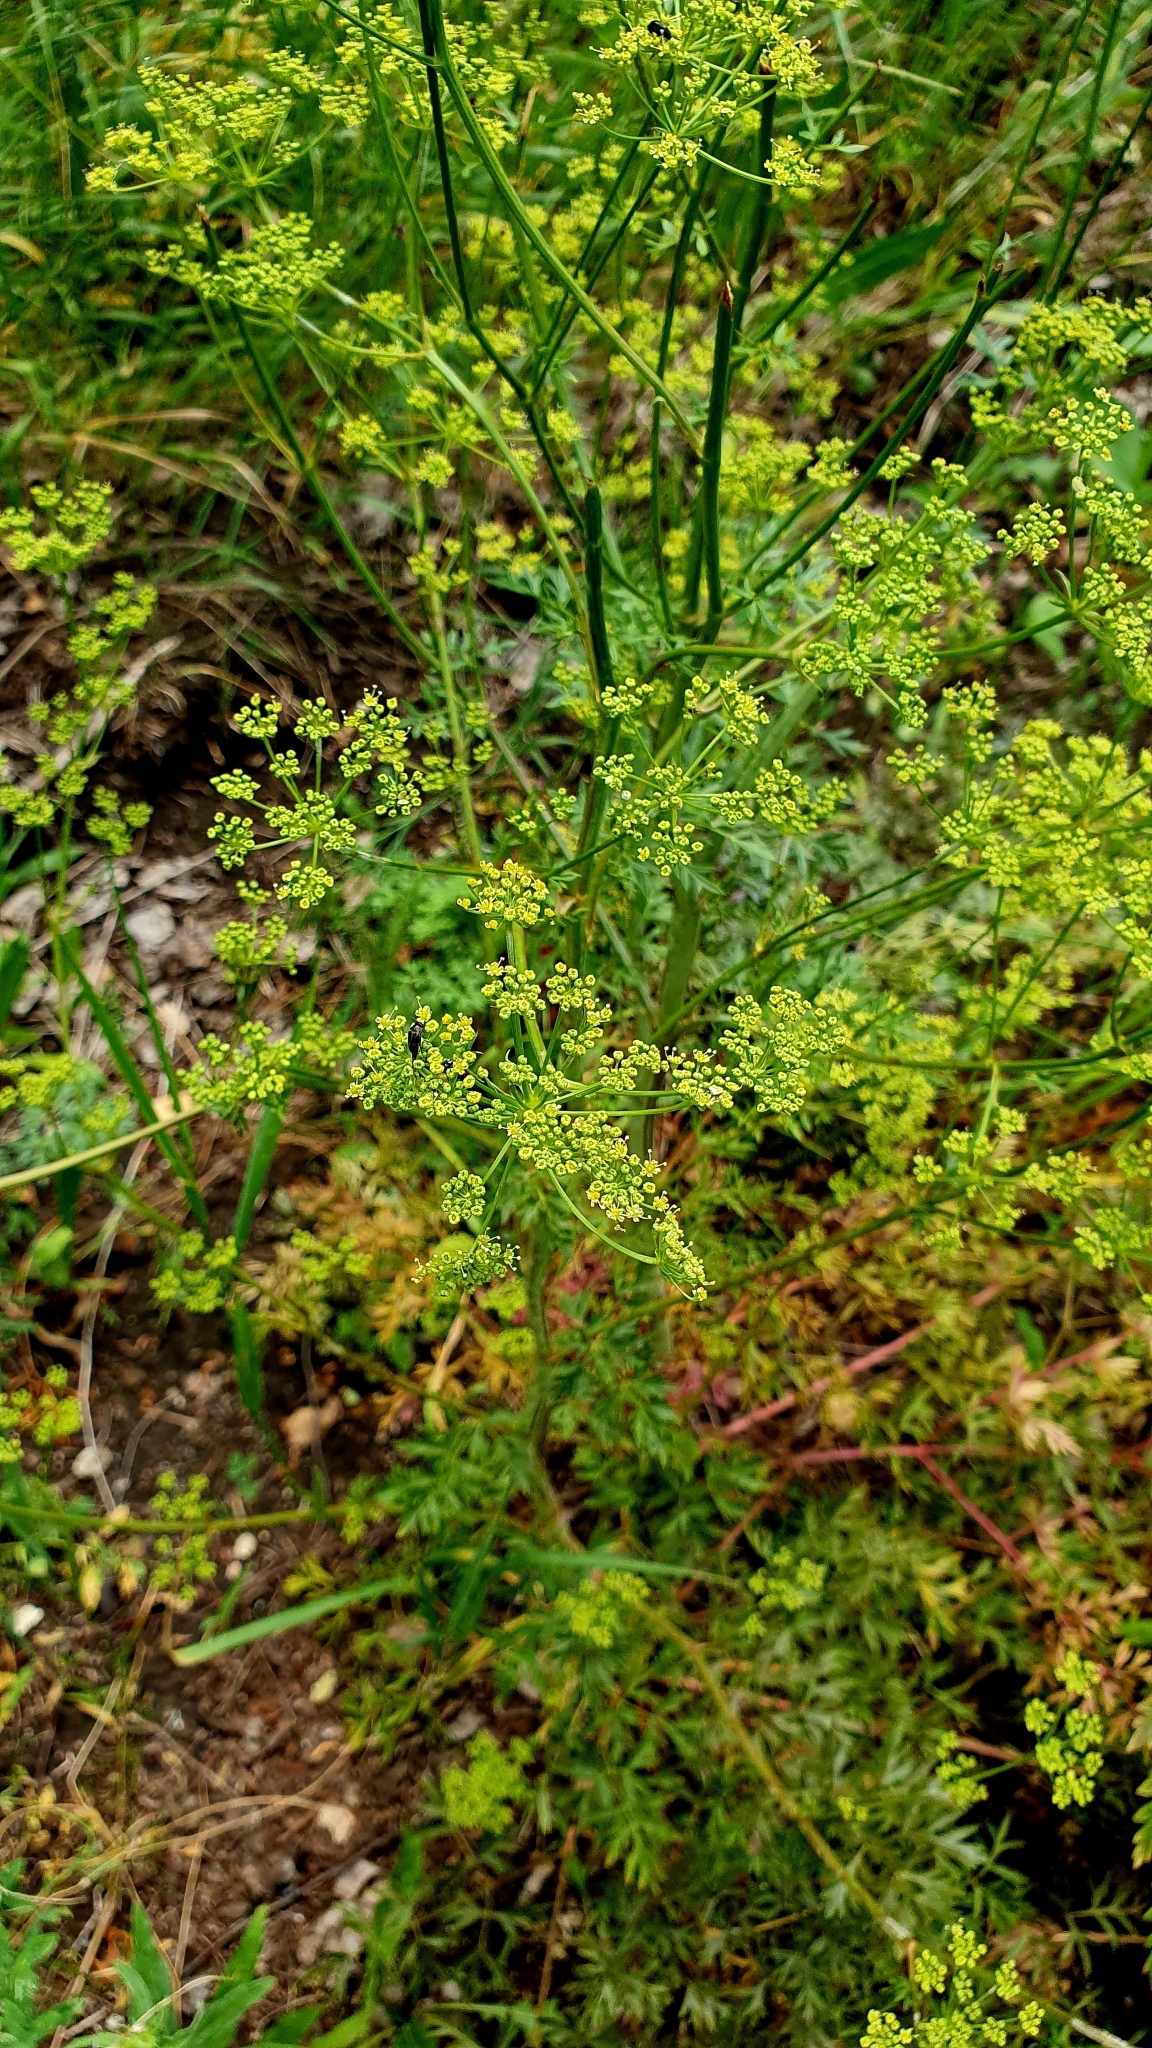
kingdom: Plantae
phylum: Tracheophyta
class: Magnoliopsida
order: Apiales
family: Apiaceae
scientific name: Apiaceae
